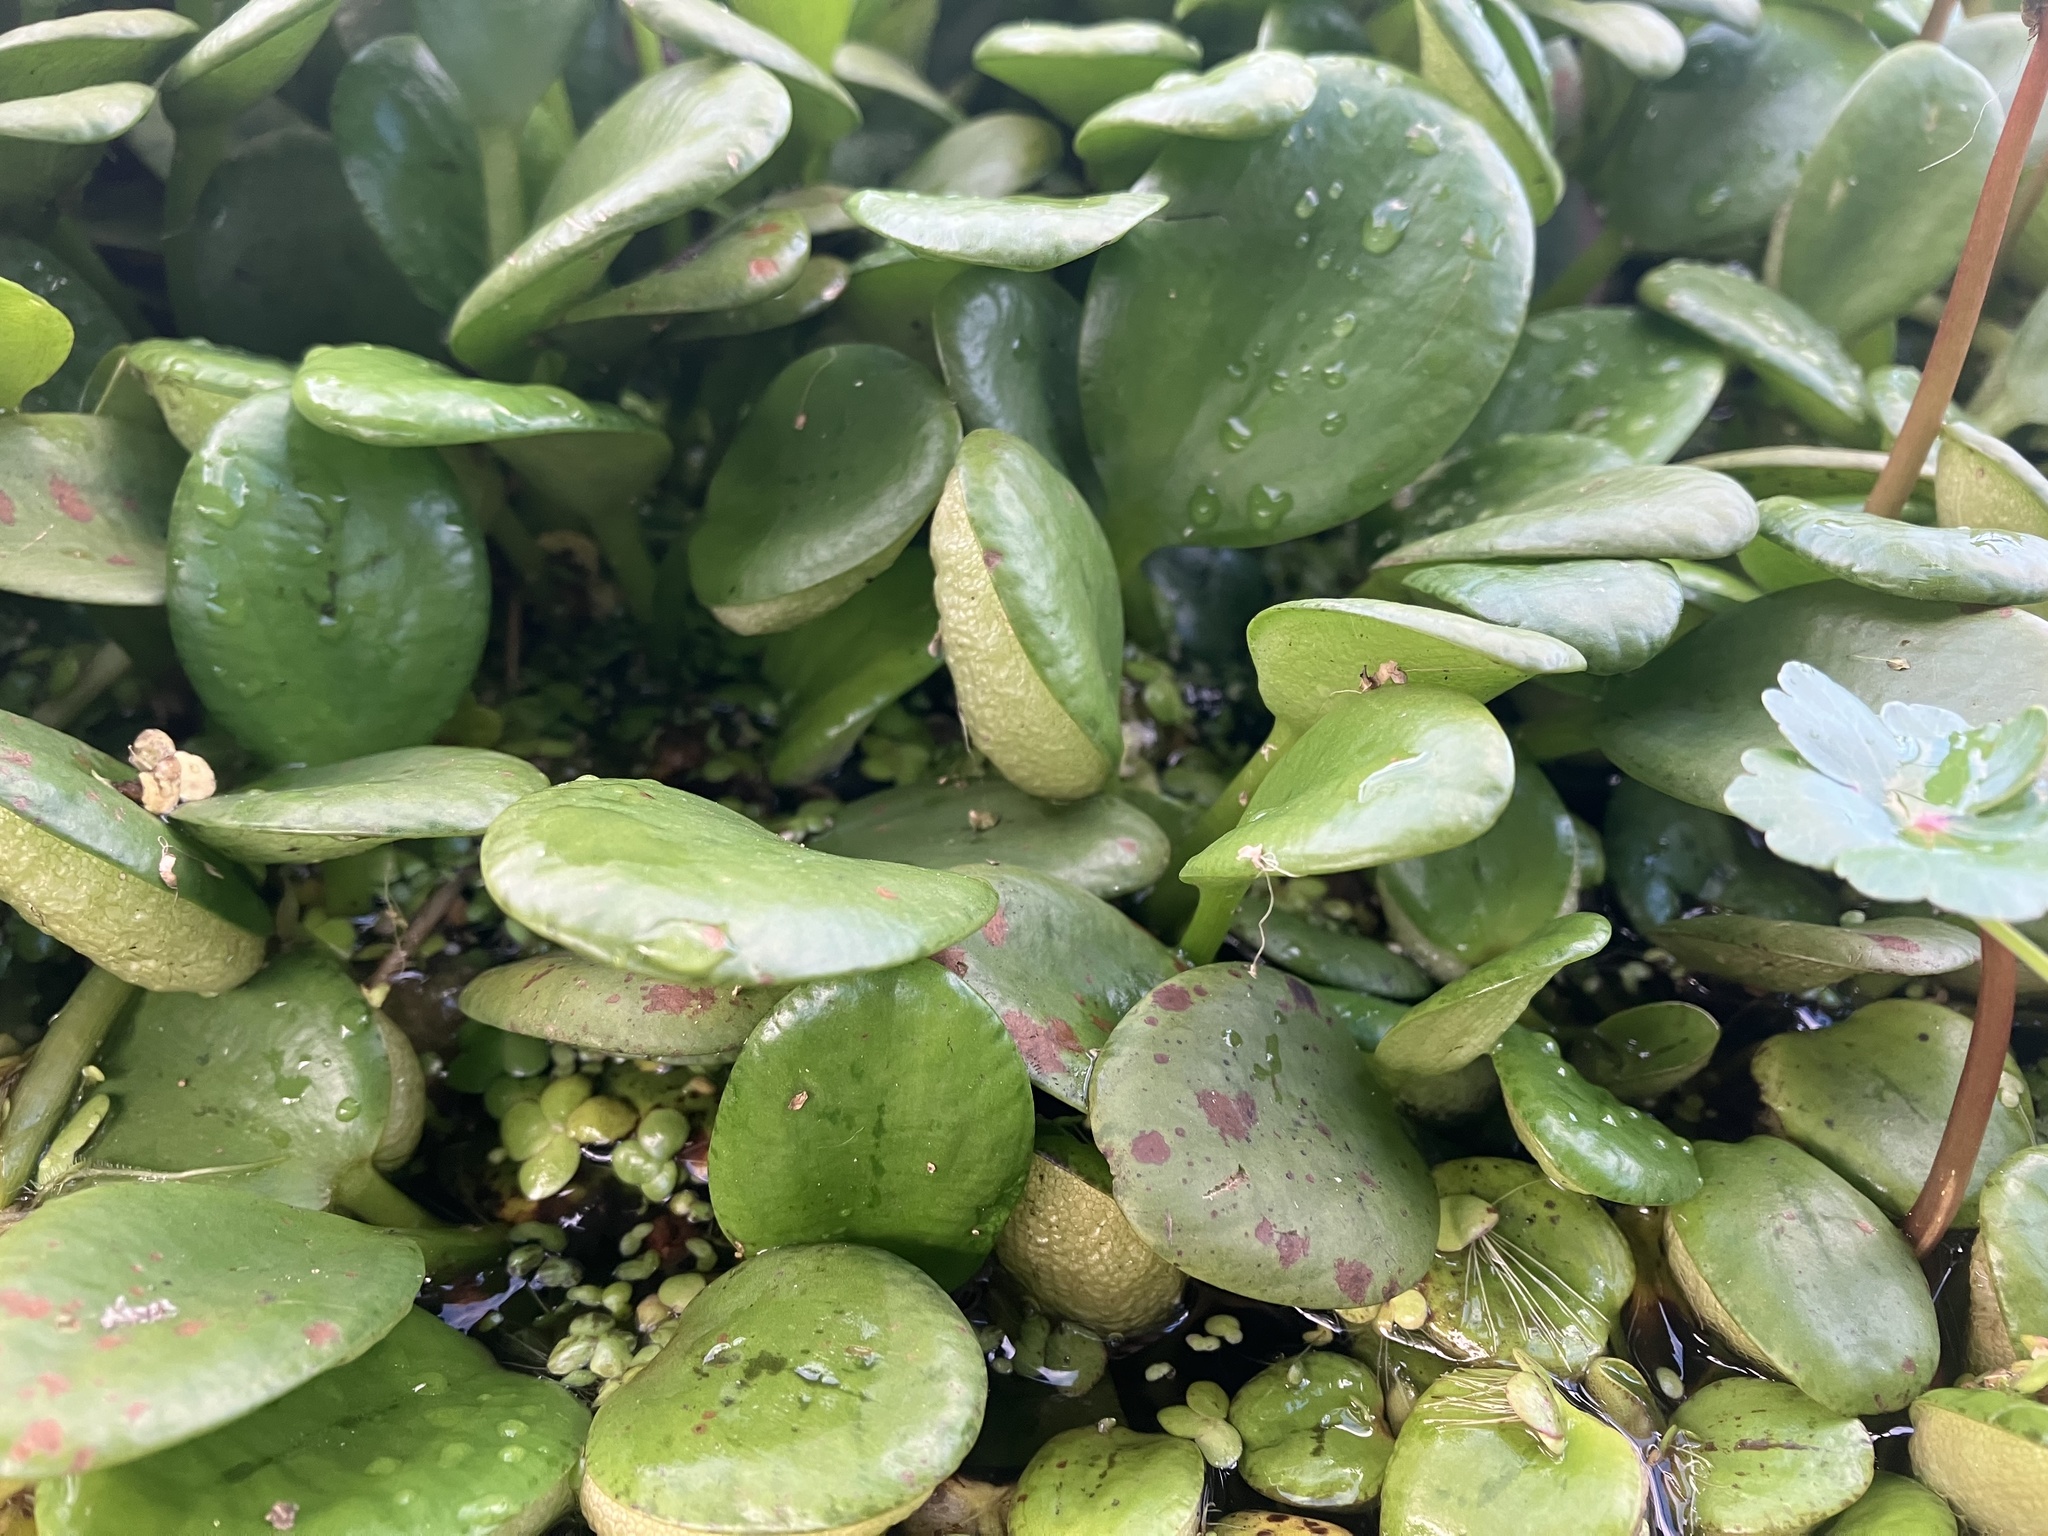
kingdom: Plantae
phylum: Tracheophyta
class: Liliopsida
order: Alismatales
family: Hydrocharitaceae
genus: Hydrocharis
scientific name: Hydrocharis laevigata
